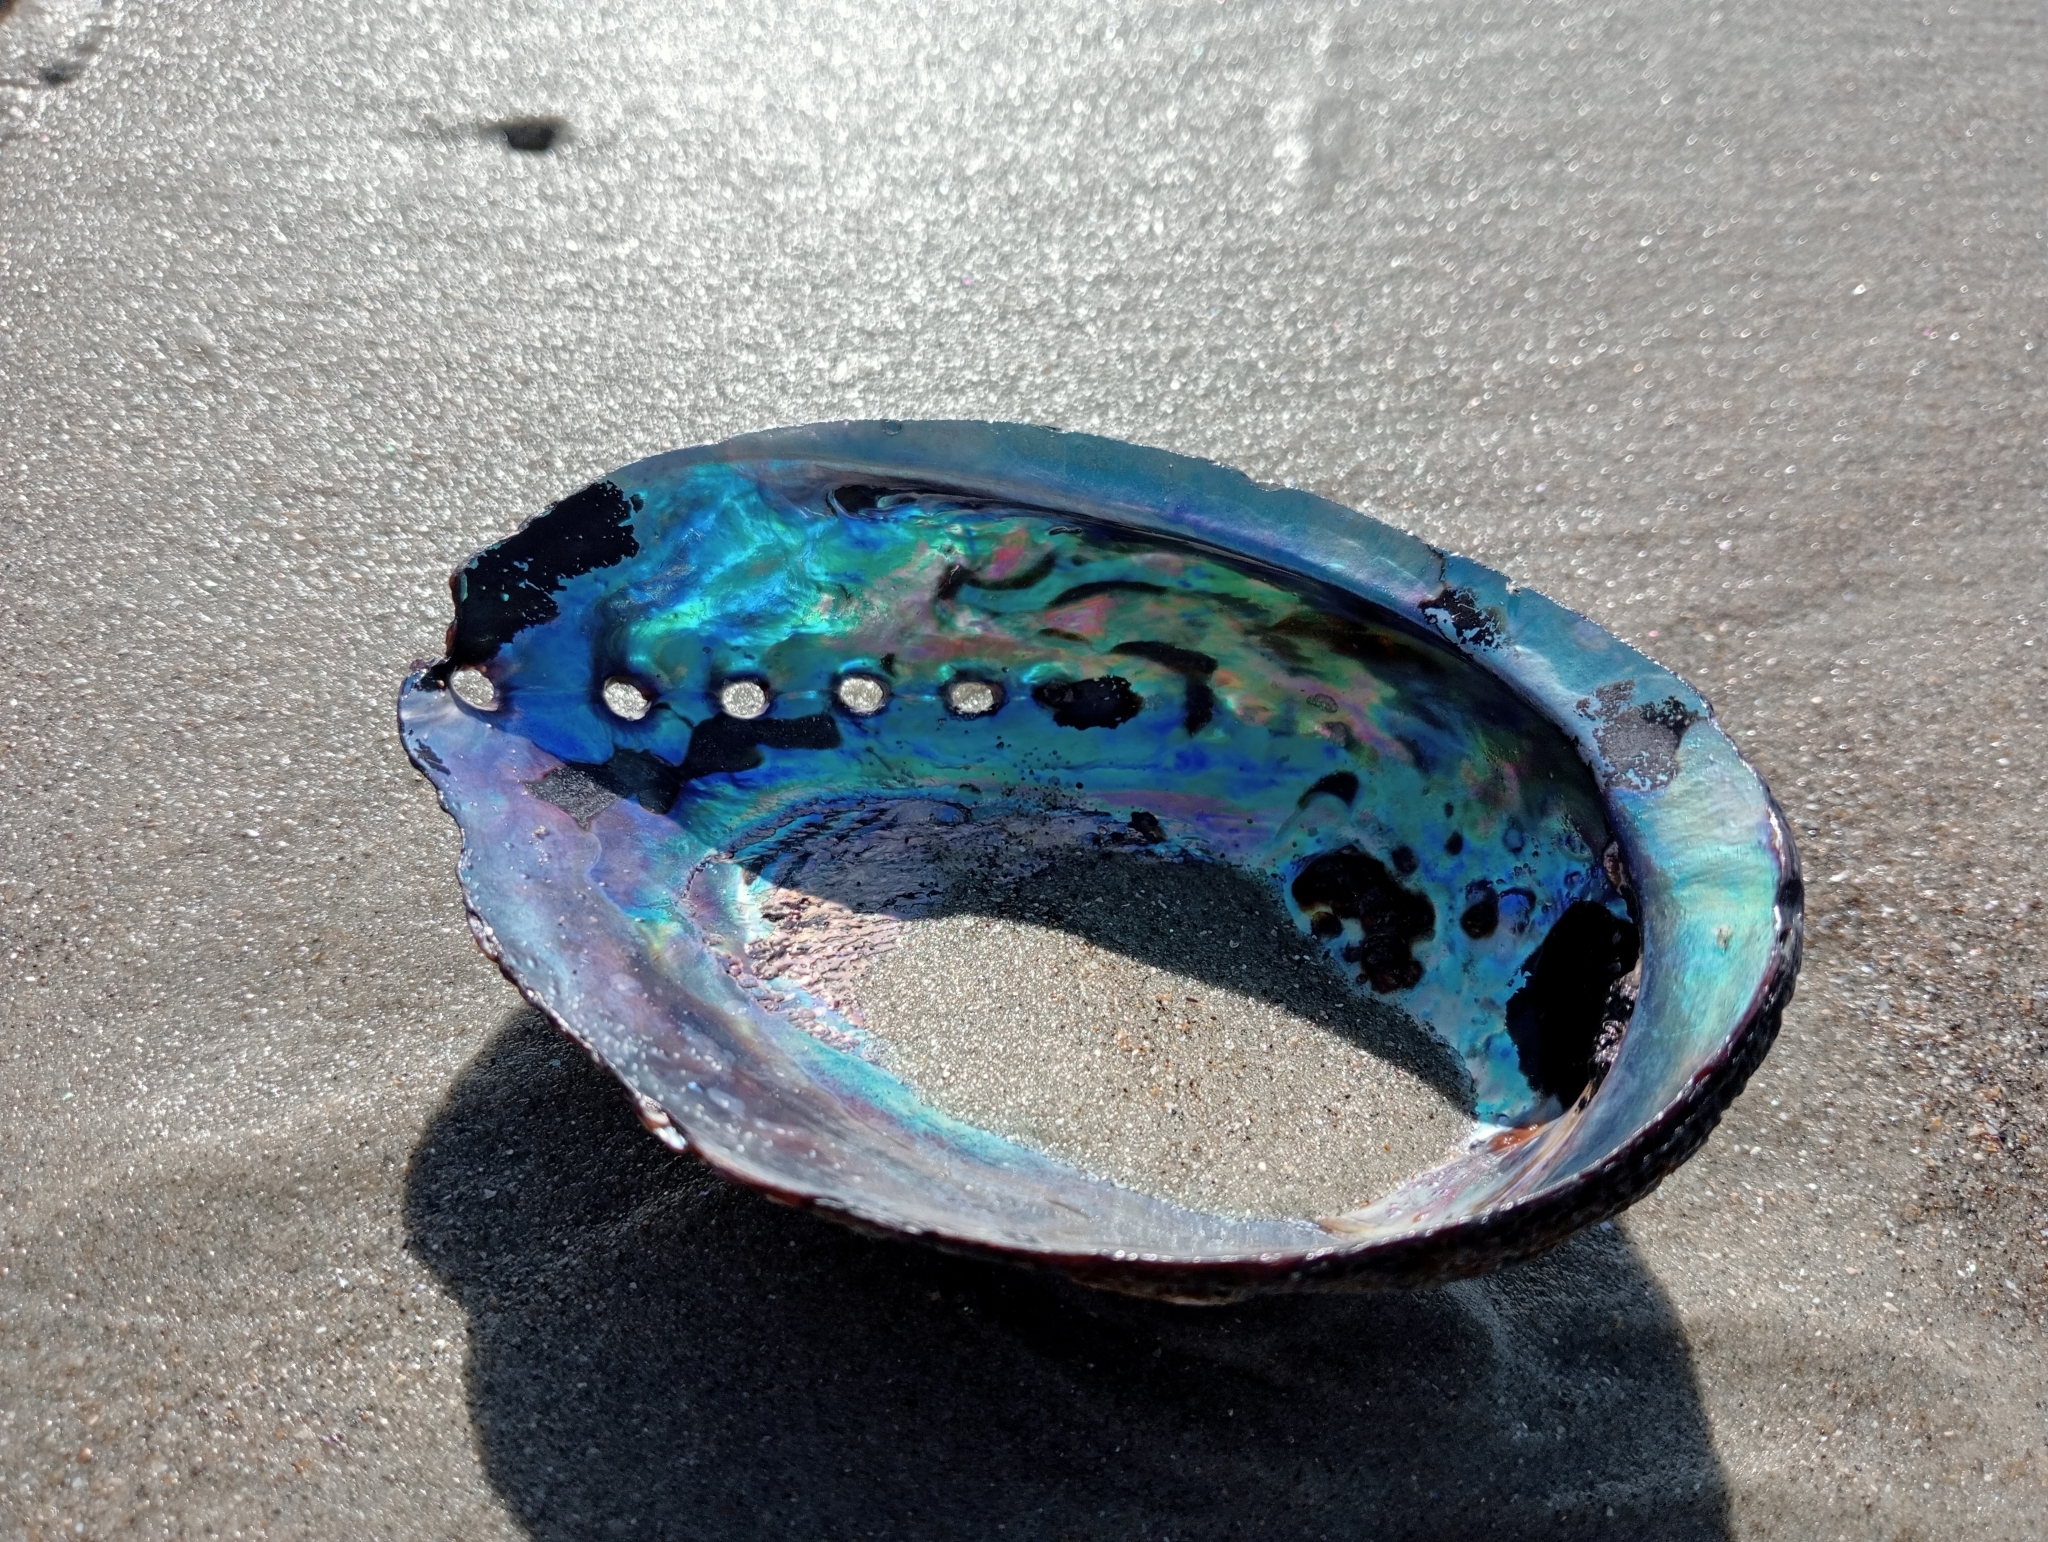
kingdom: Animalia
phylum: Mollusca
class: Gastropoda
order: Lepetellida
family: Haliotidae
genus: Haliotis
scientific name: Haliotis iris
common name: Abalone
